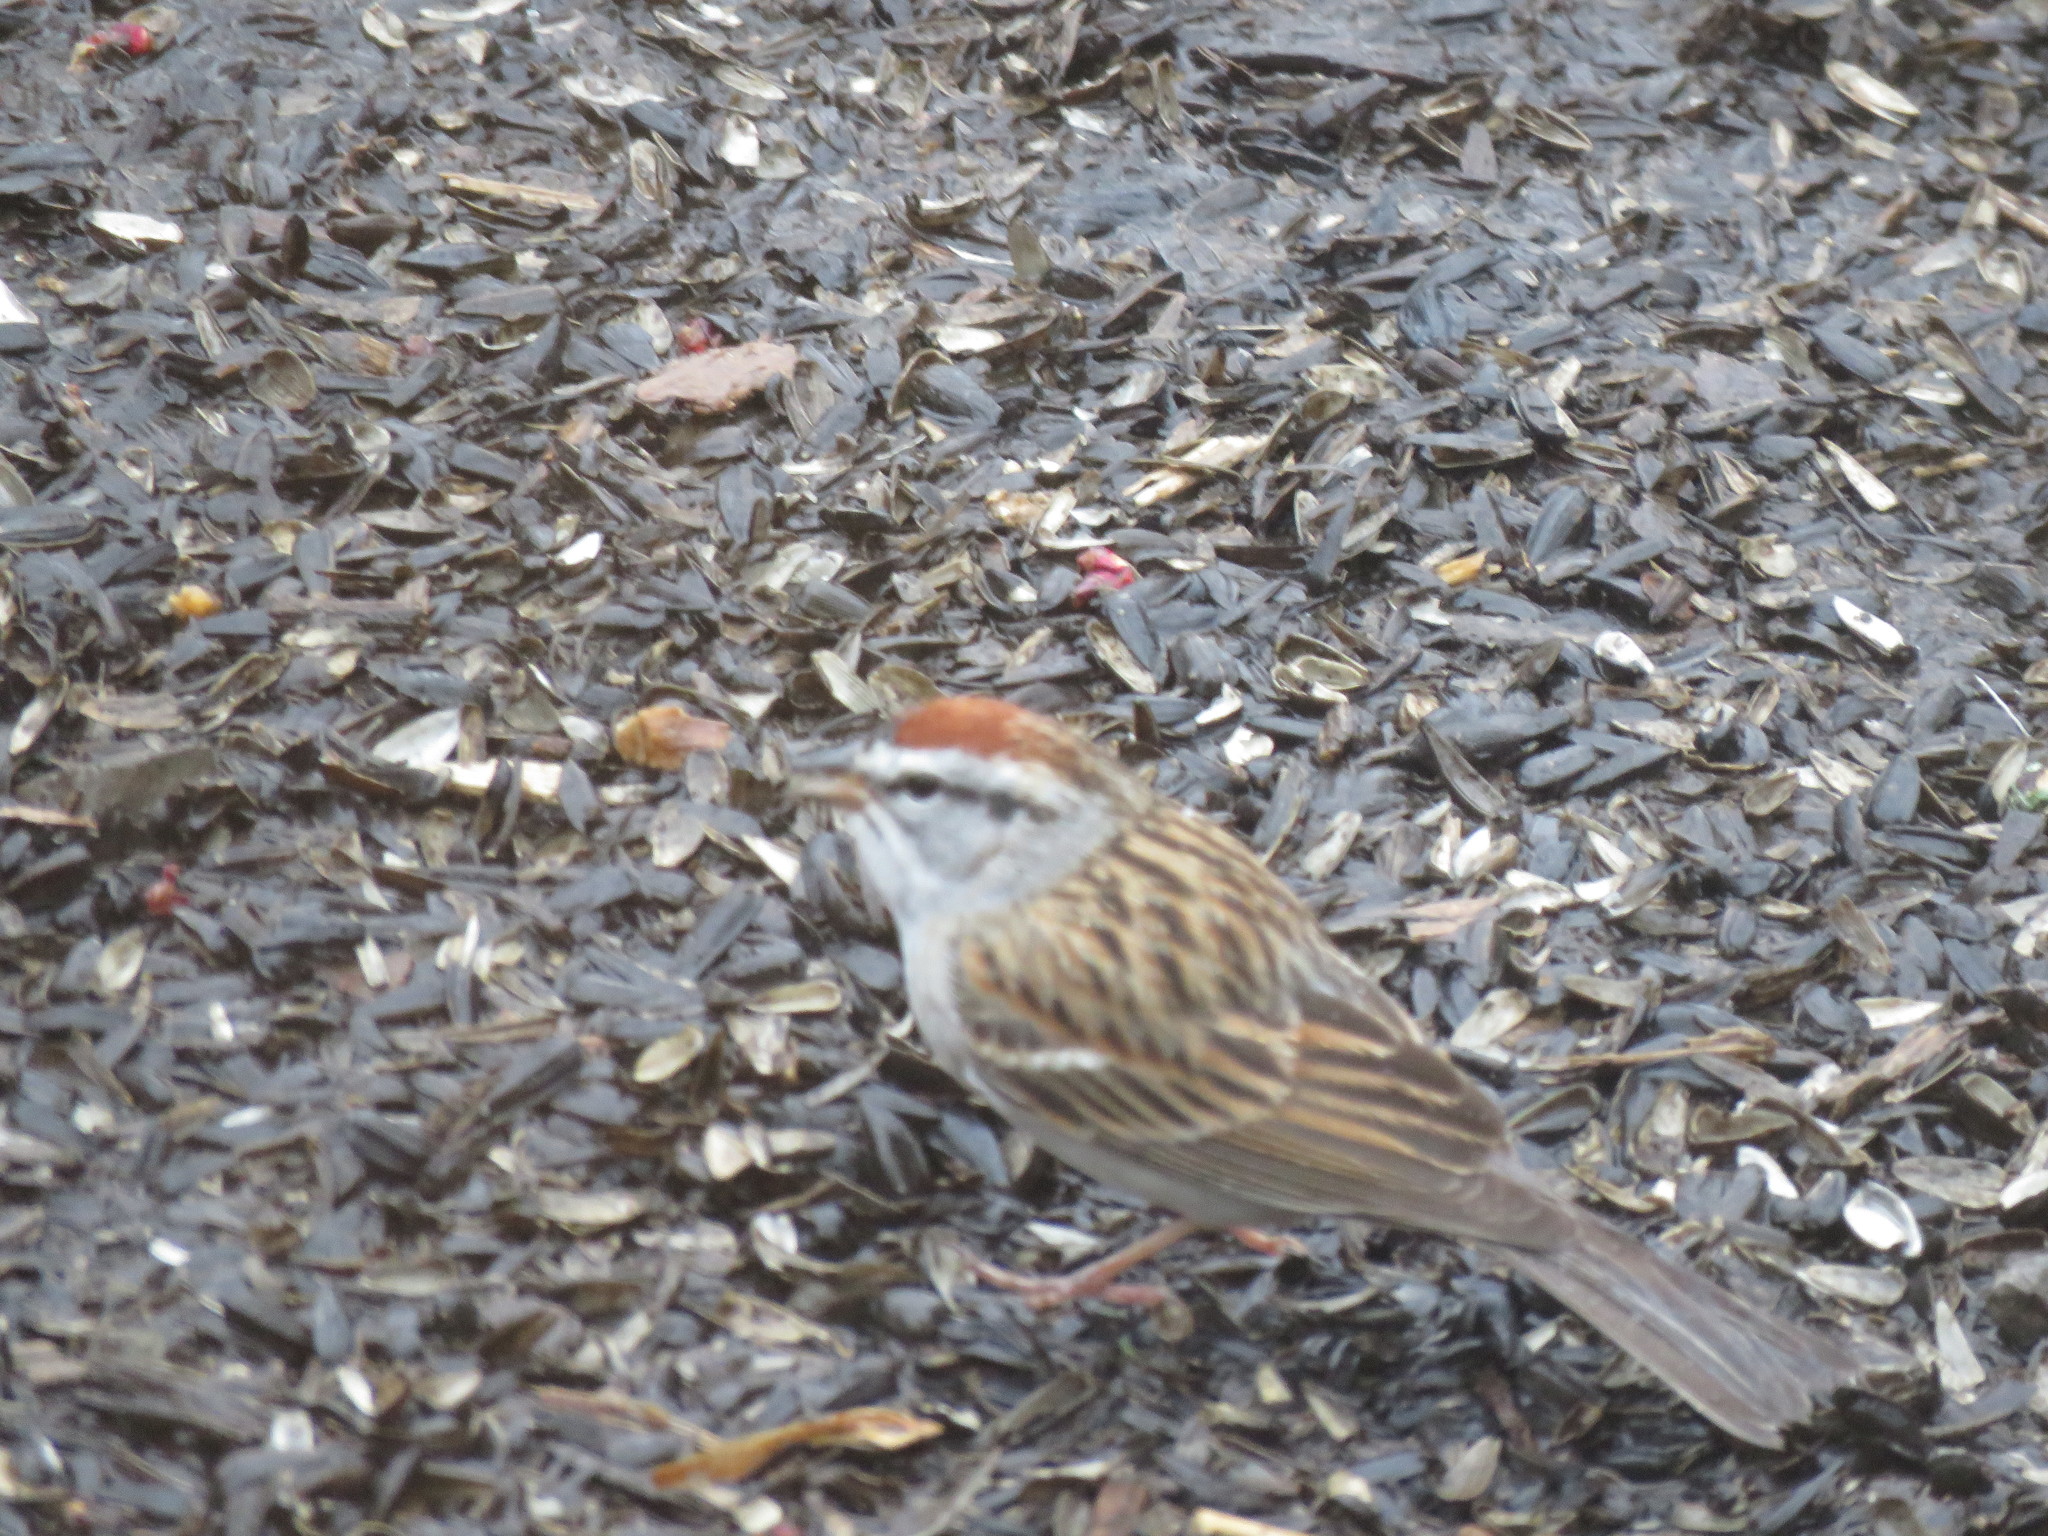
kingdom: Animalia
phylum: Chordata
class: Aves
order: Passeriformes
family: Passerellidae
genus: Spizella
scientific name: Spizella passerina
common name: Chipping sparrow
